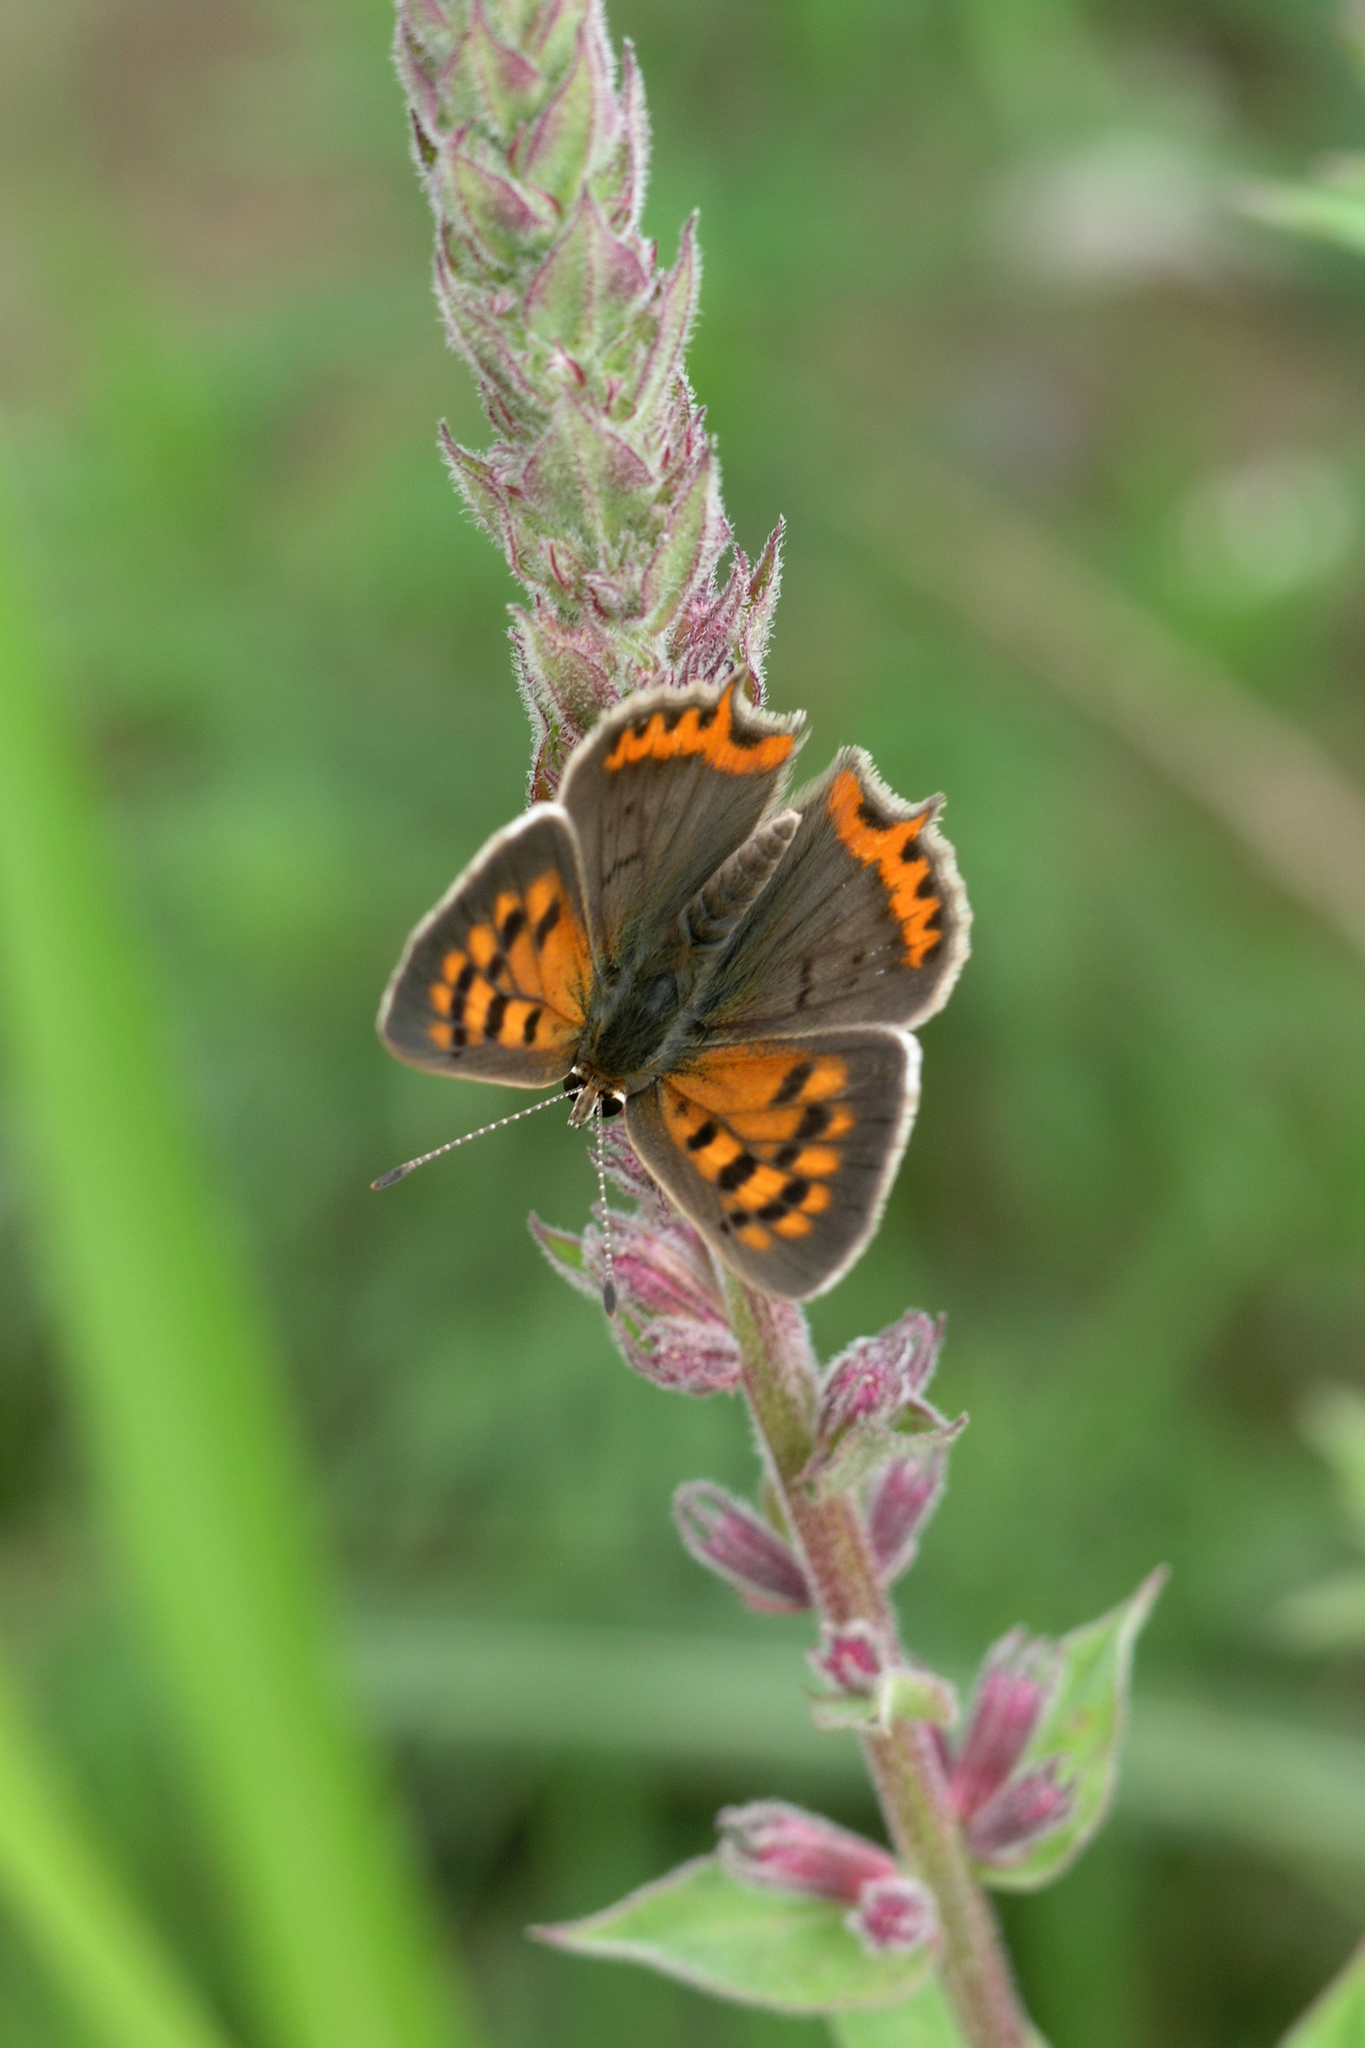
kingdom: Plantae
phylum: Tracheophyta
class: Magnoliopsida
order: Myrtales
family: Lythraceae
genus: Lythrum
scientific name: Lythrum salicaria
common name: Purple loosestrife
